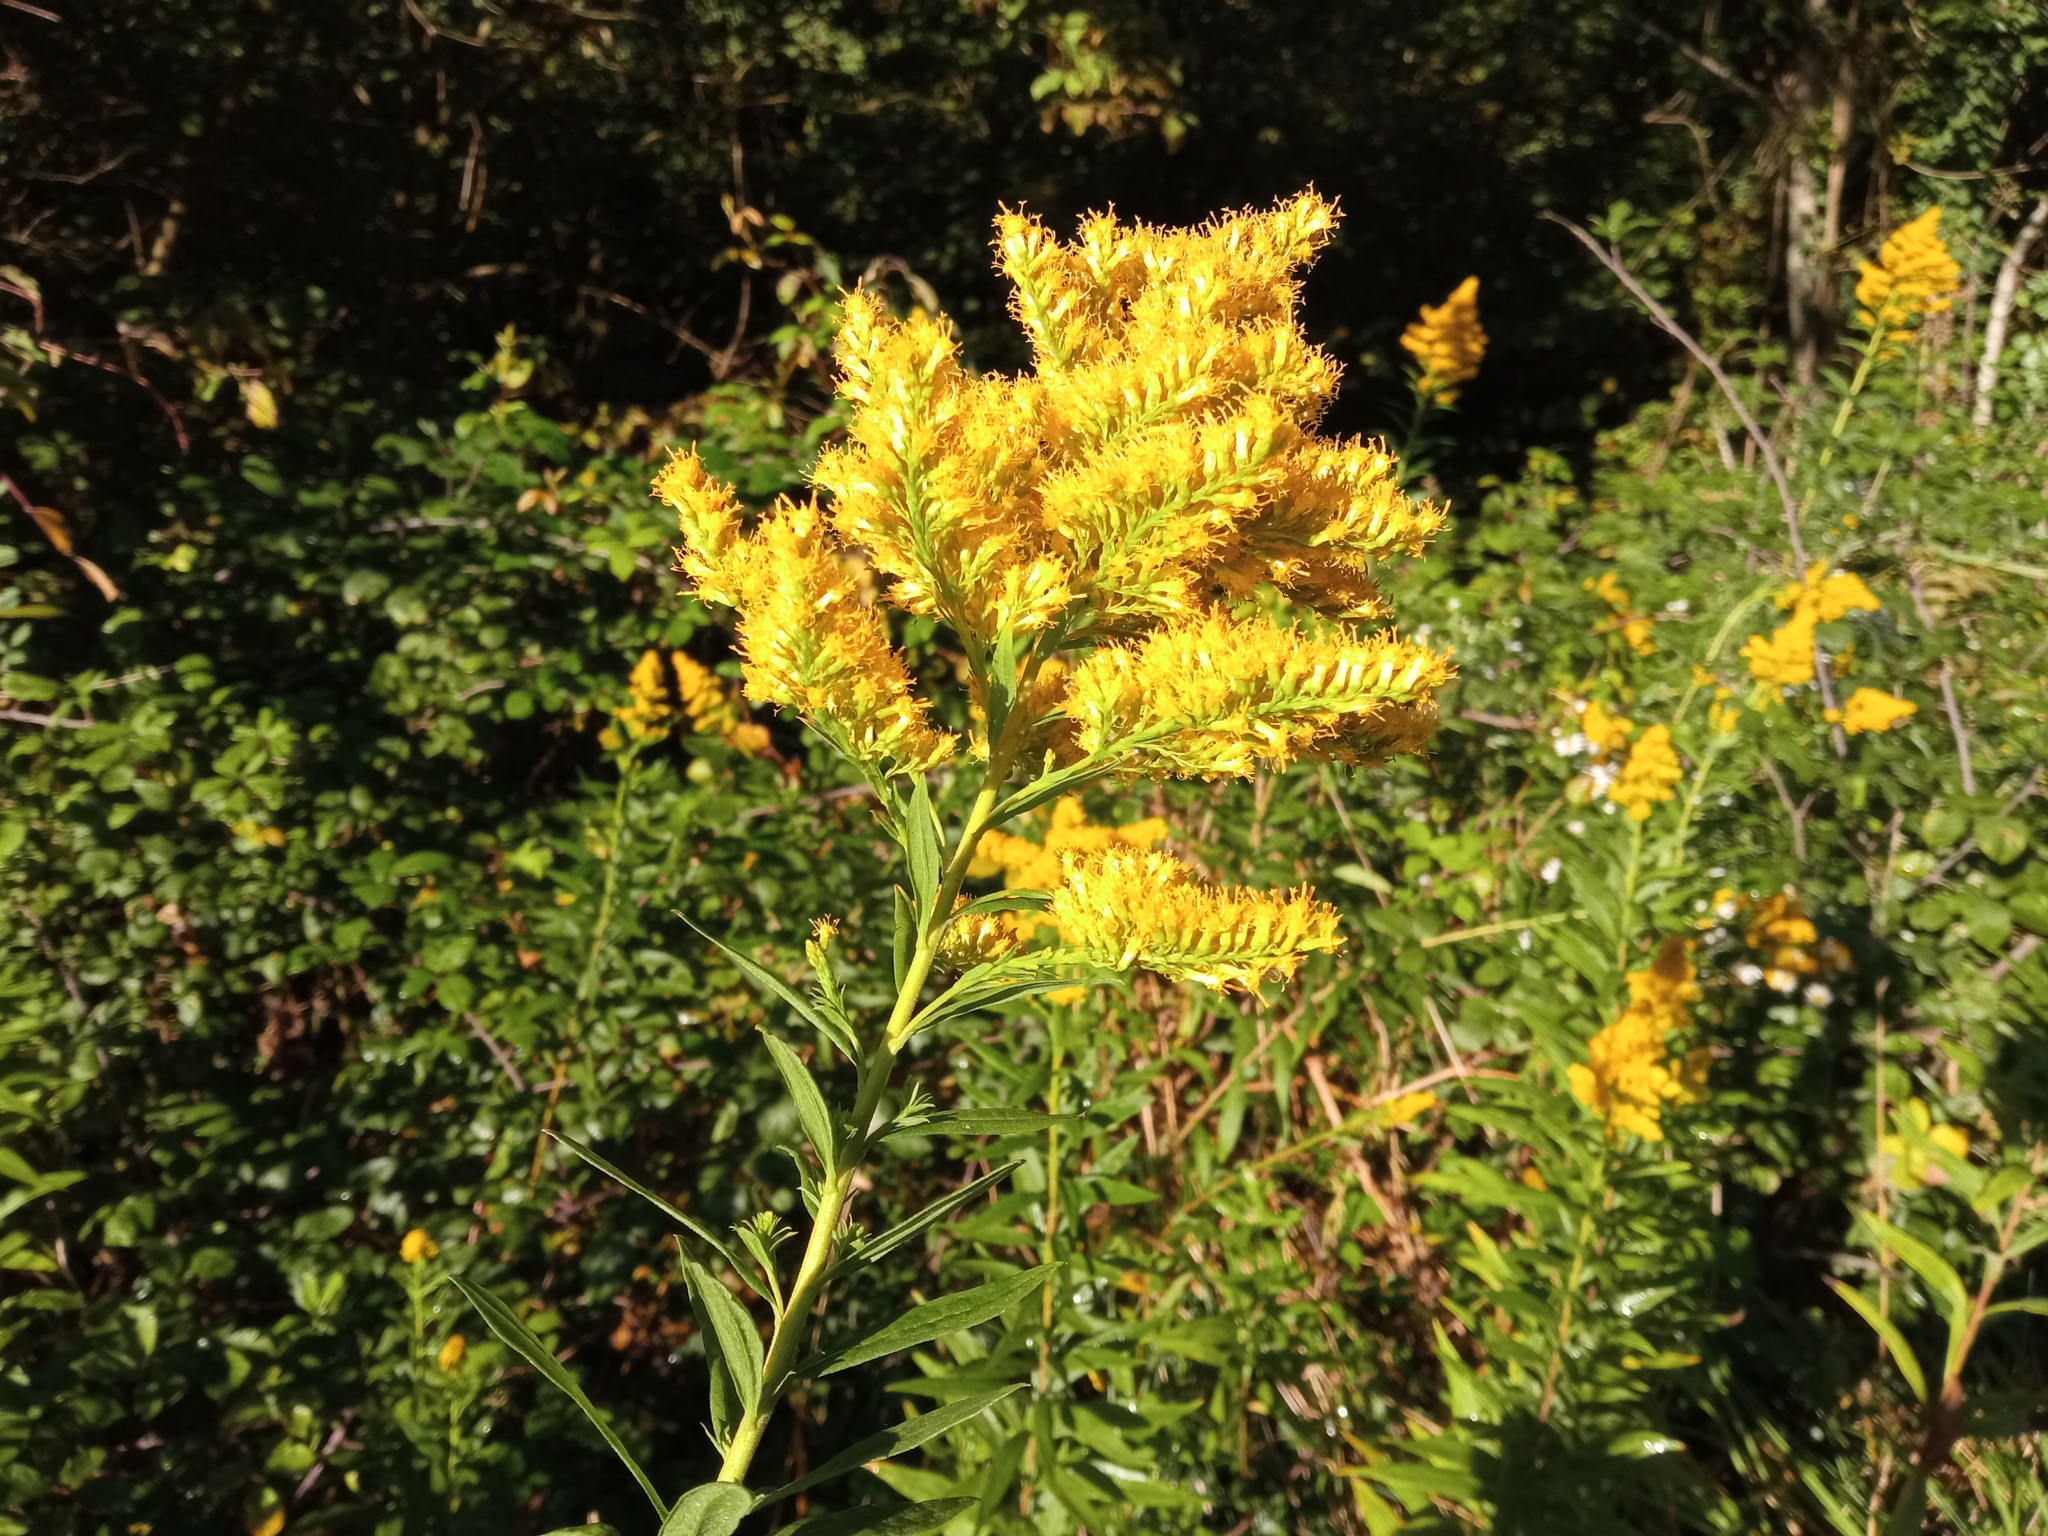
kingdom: Plantae
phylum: Tracheophyta
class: Magnoliopsida
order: Asterales
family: Asteraceae
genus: Solidago
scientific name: Solidago canadensis
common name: Canada goldenrod
